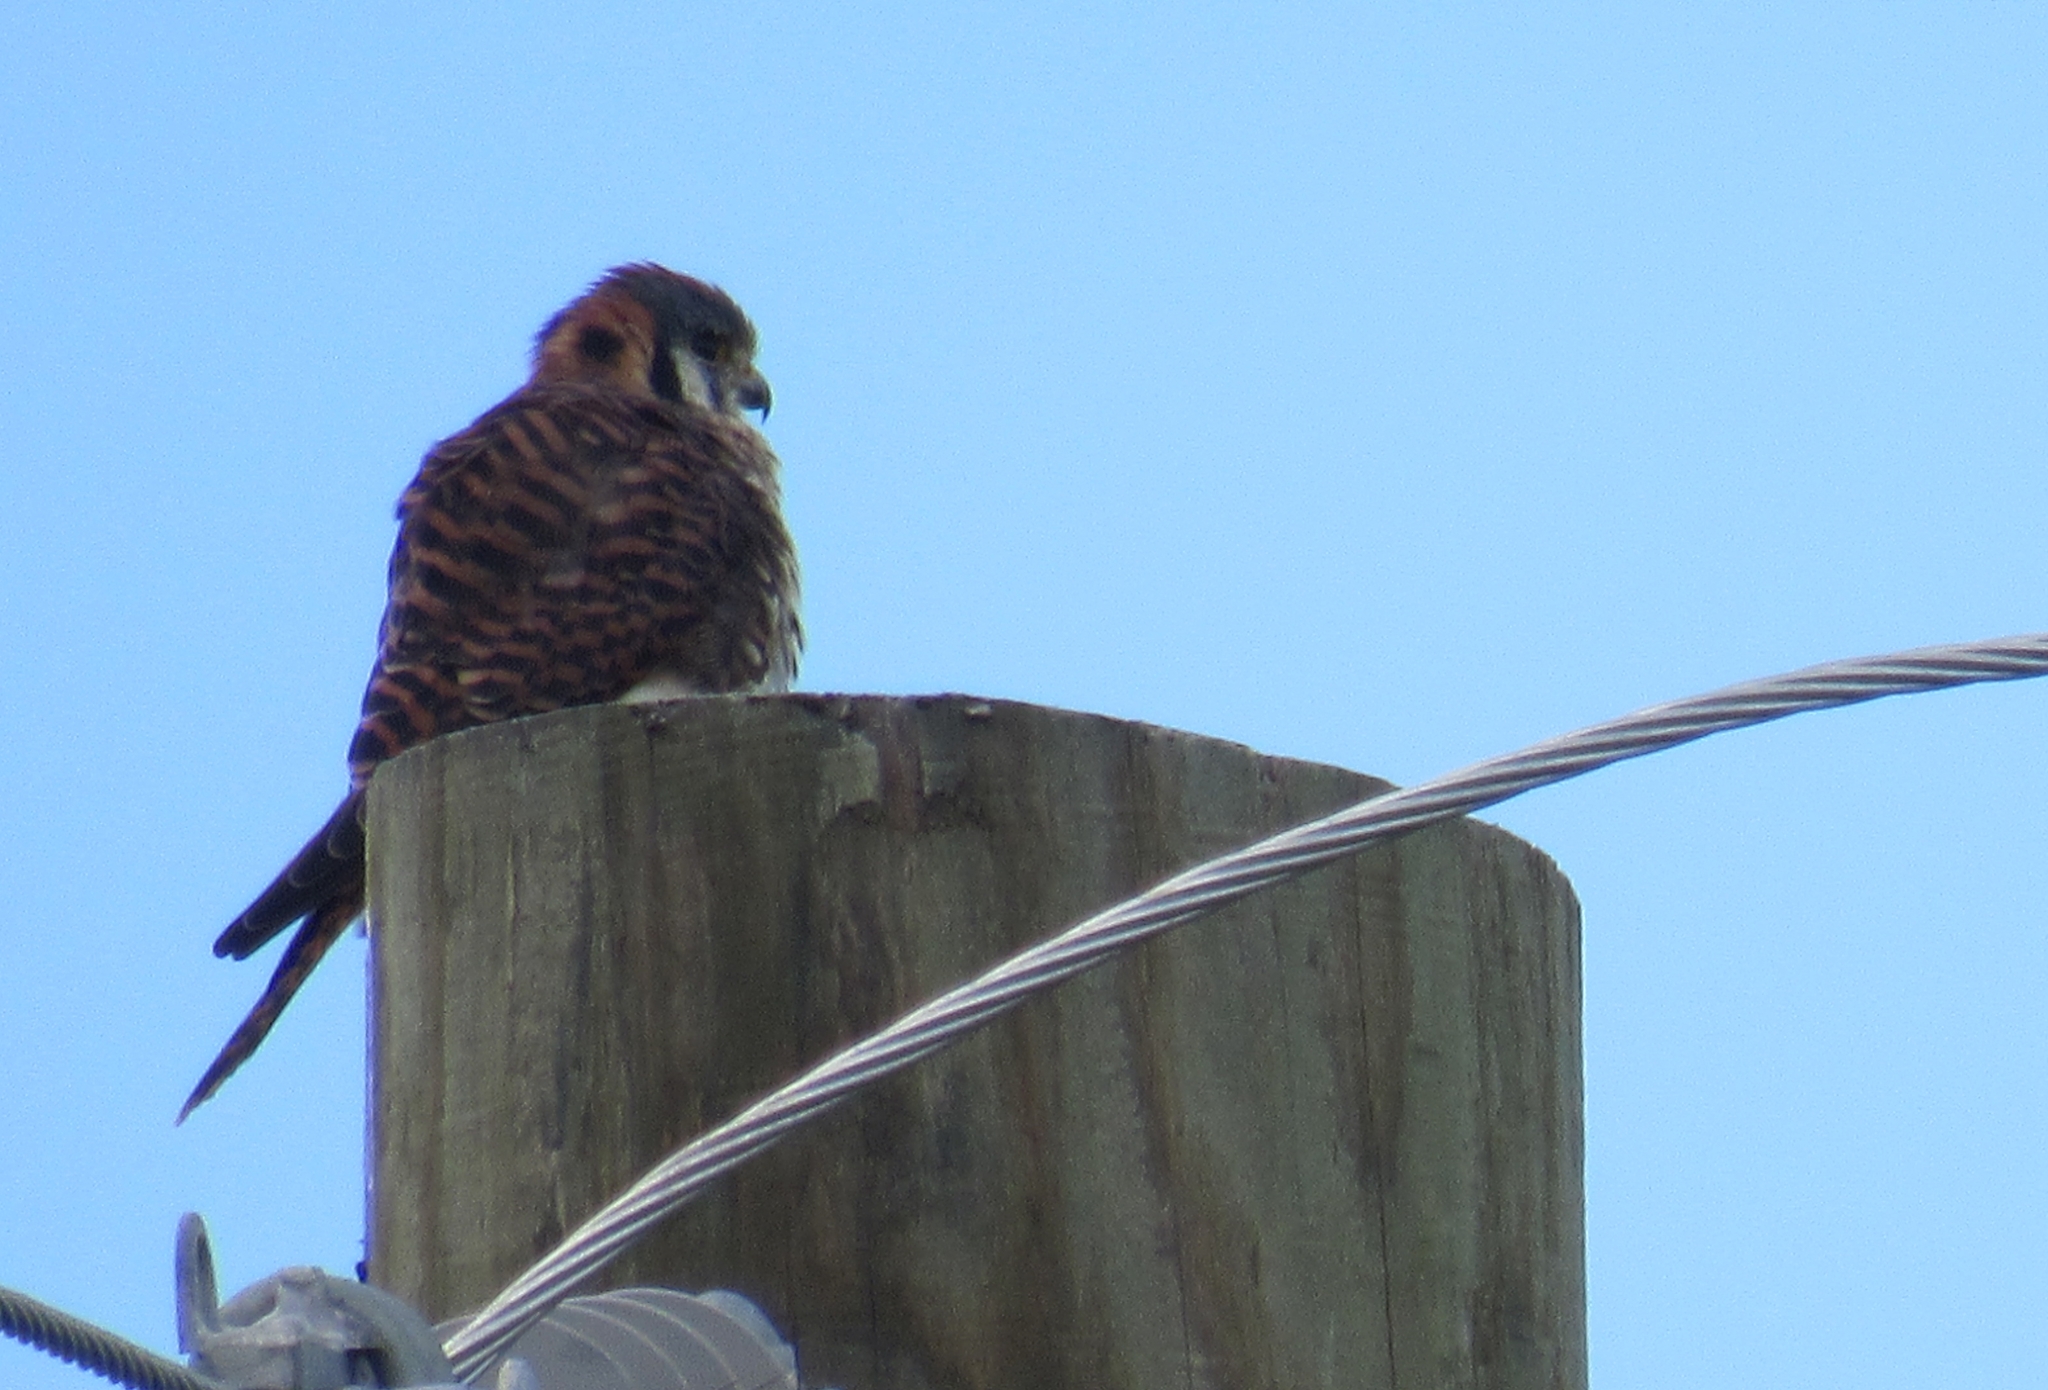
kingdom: Animalia
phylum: Chordata
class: Aves
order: Falconiformes
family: Falconidae
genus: Falco
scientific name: Falco sparverius
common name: American kestrel
